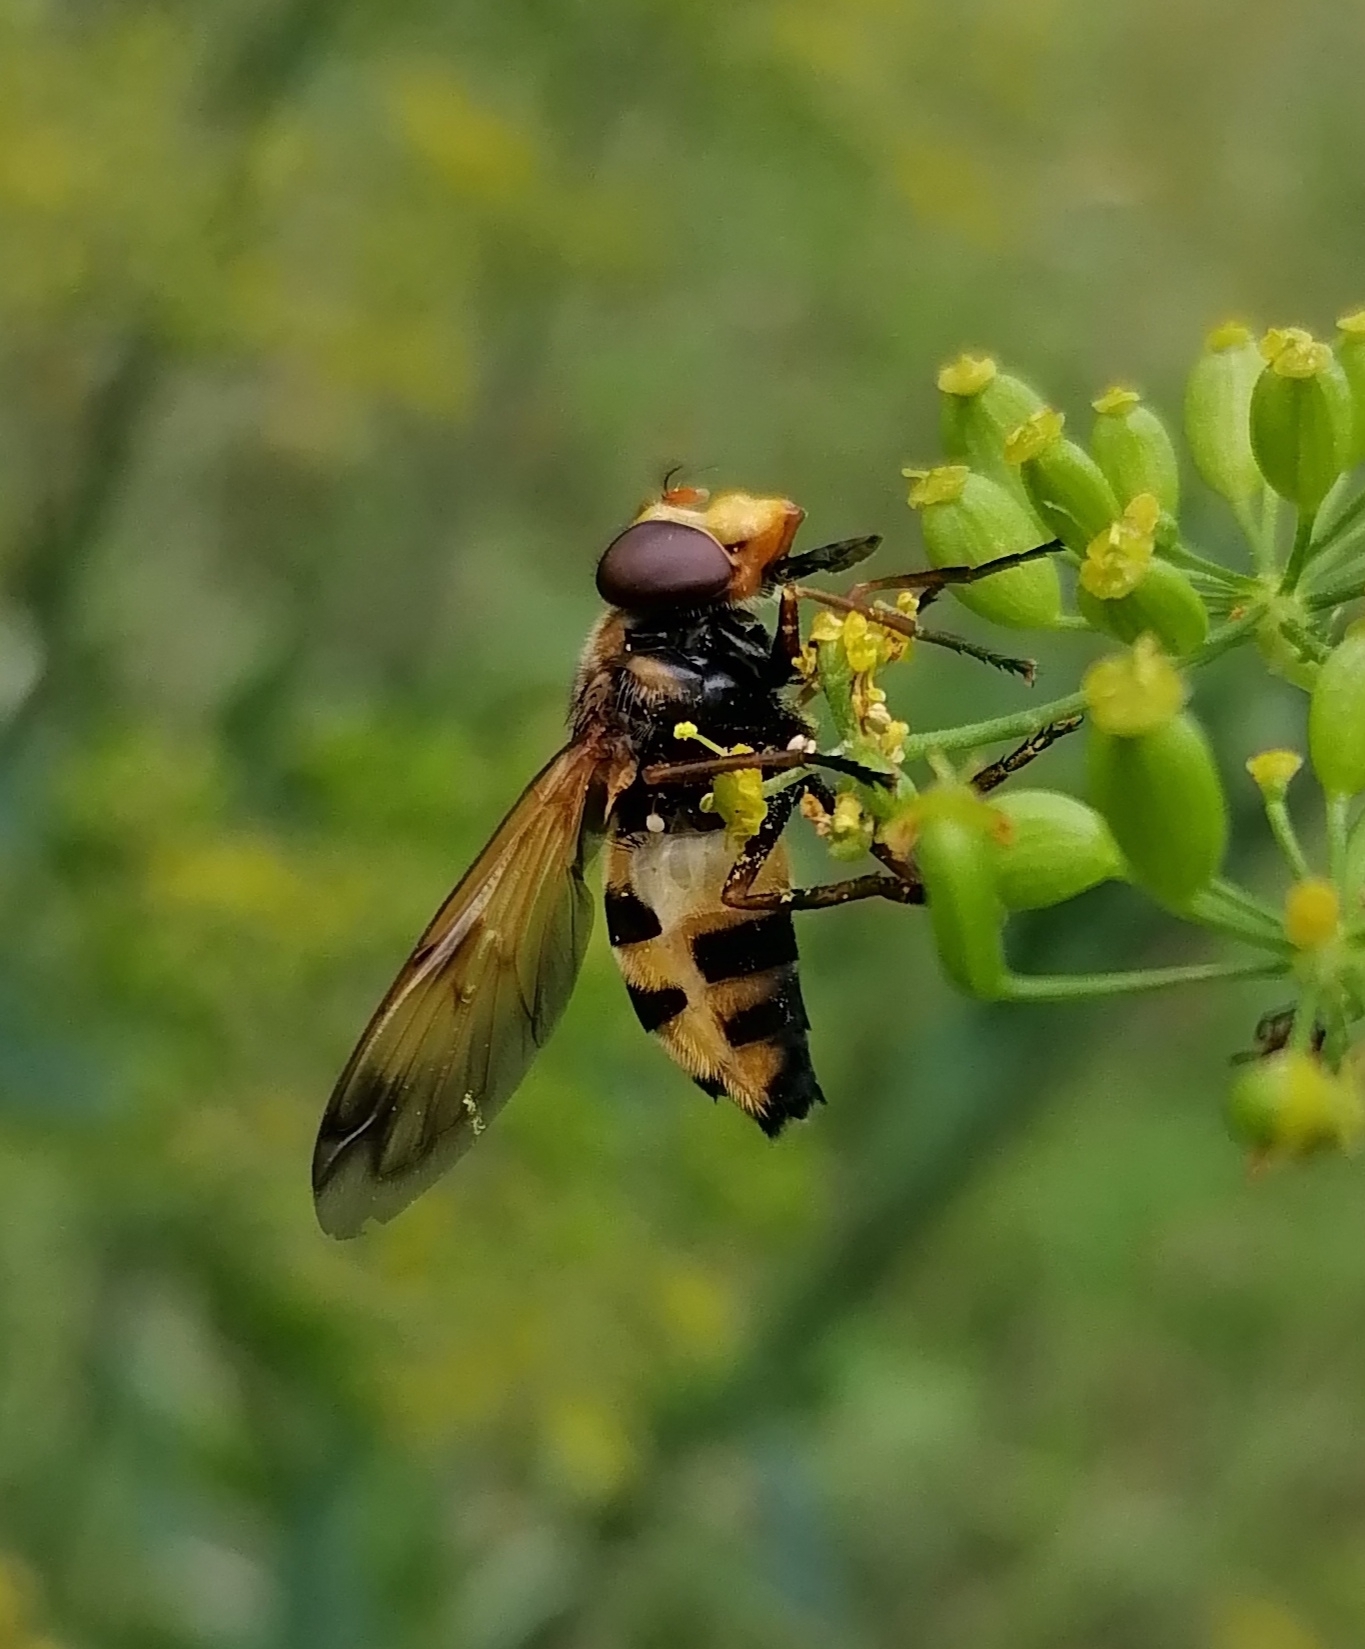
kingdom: Animalia
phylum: Arthropoda
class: Insecta
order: Diptera
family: Syrphidae
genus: Volucella
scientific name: Volucella inanis
